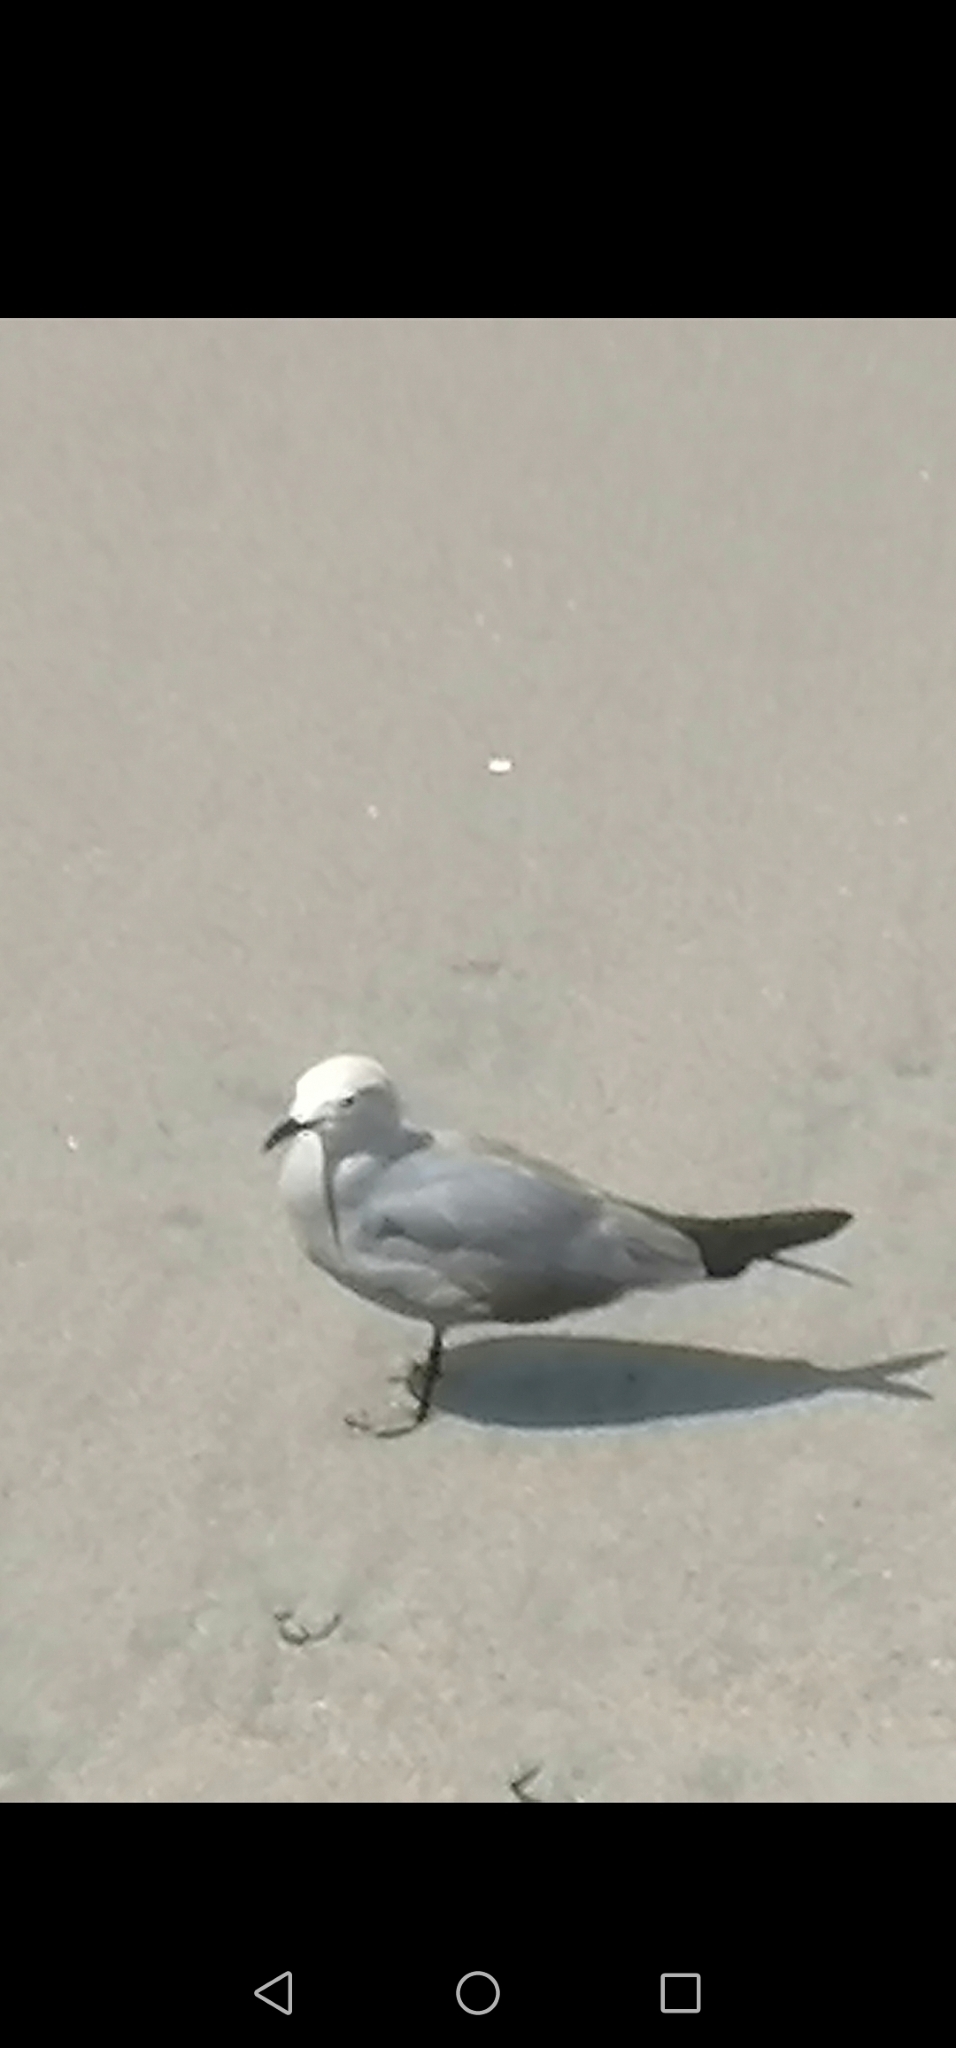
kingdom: Animalia
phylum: Chordata
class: Aves
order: Charadriiformes
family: Laridae
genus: Leucophaeus
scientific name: Leucophaeus modestus
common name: Gray gull
